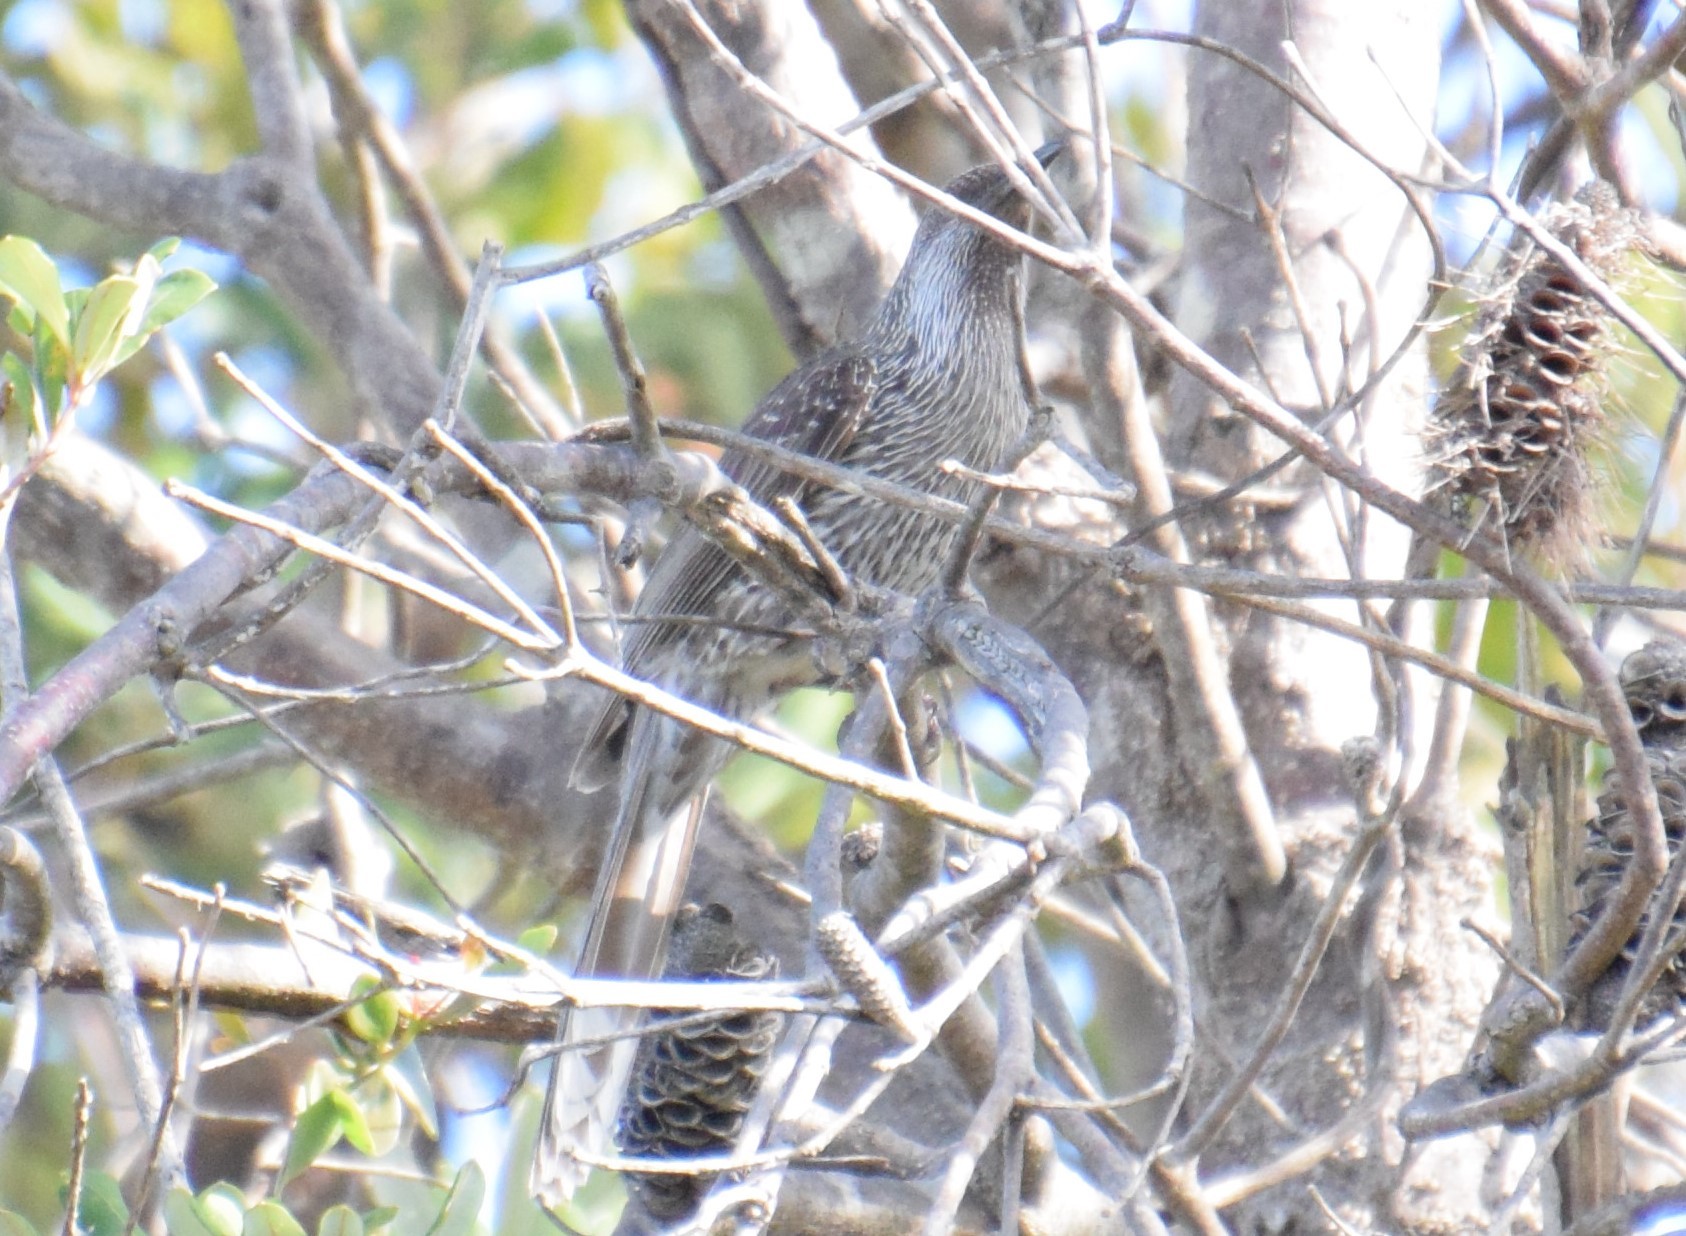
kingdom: Animalia
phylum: Chordata
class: Aves
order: Passeriformes
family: Meliphagidae
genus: Anthochaera
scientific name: Anthochaera chrysoptera
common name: Little wattlebird
